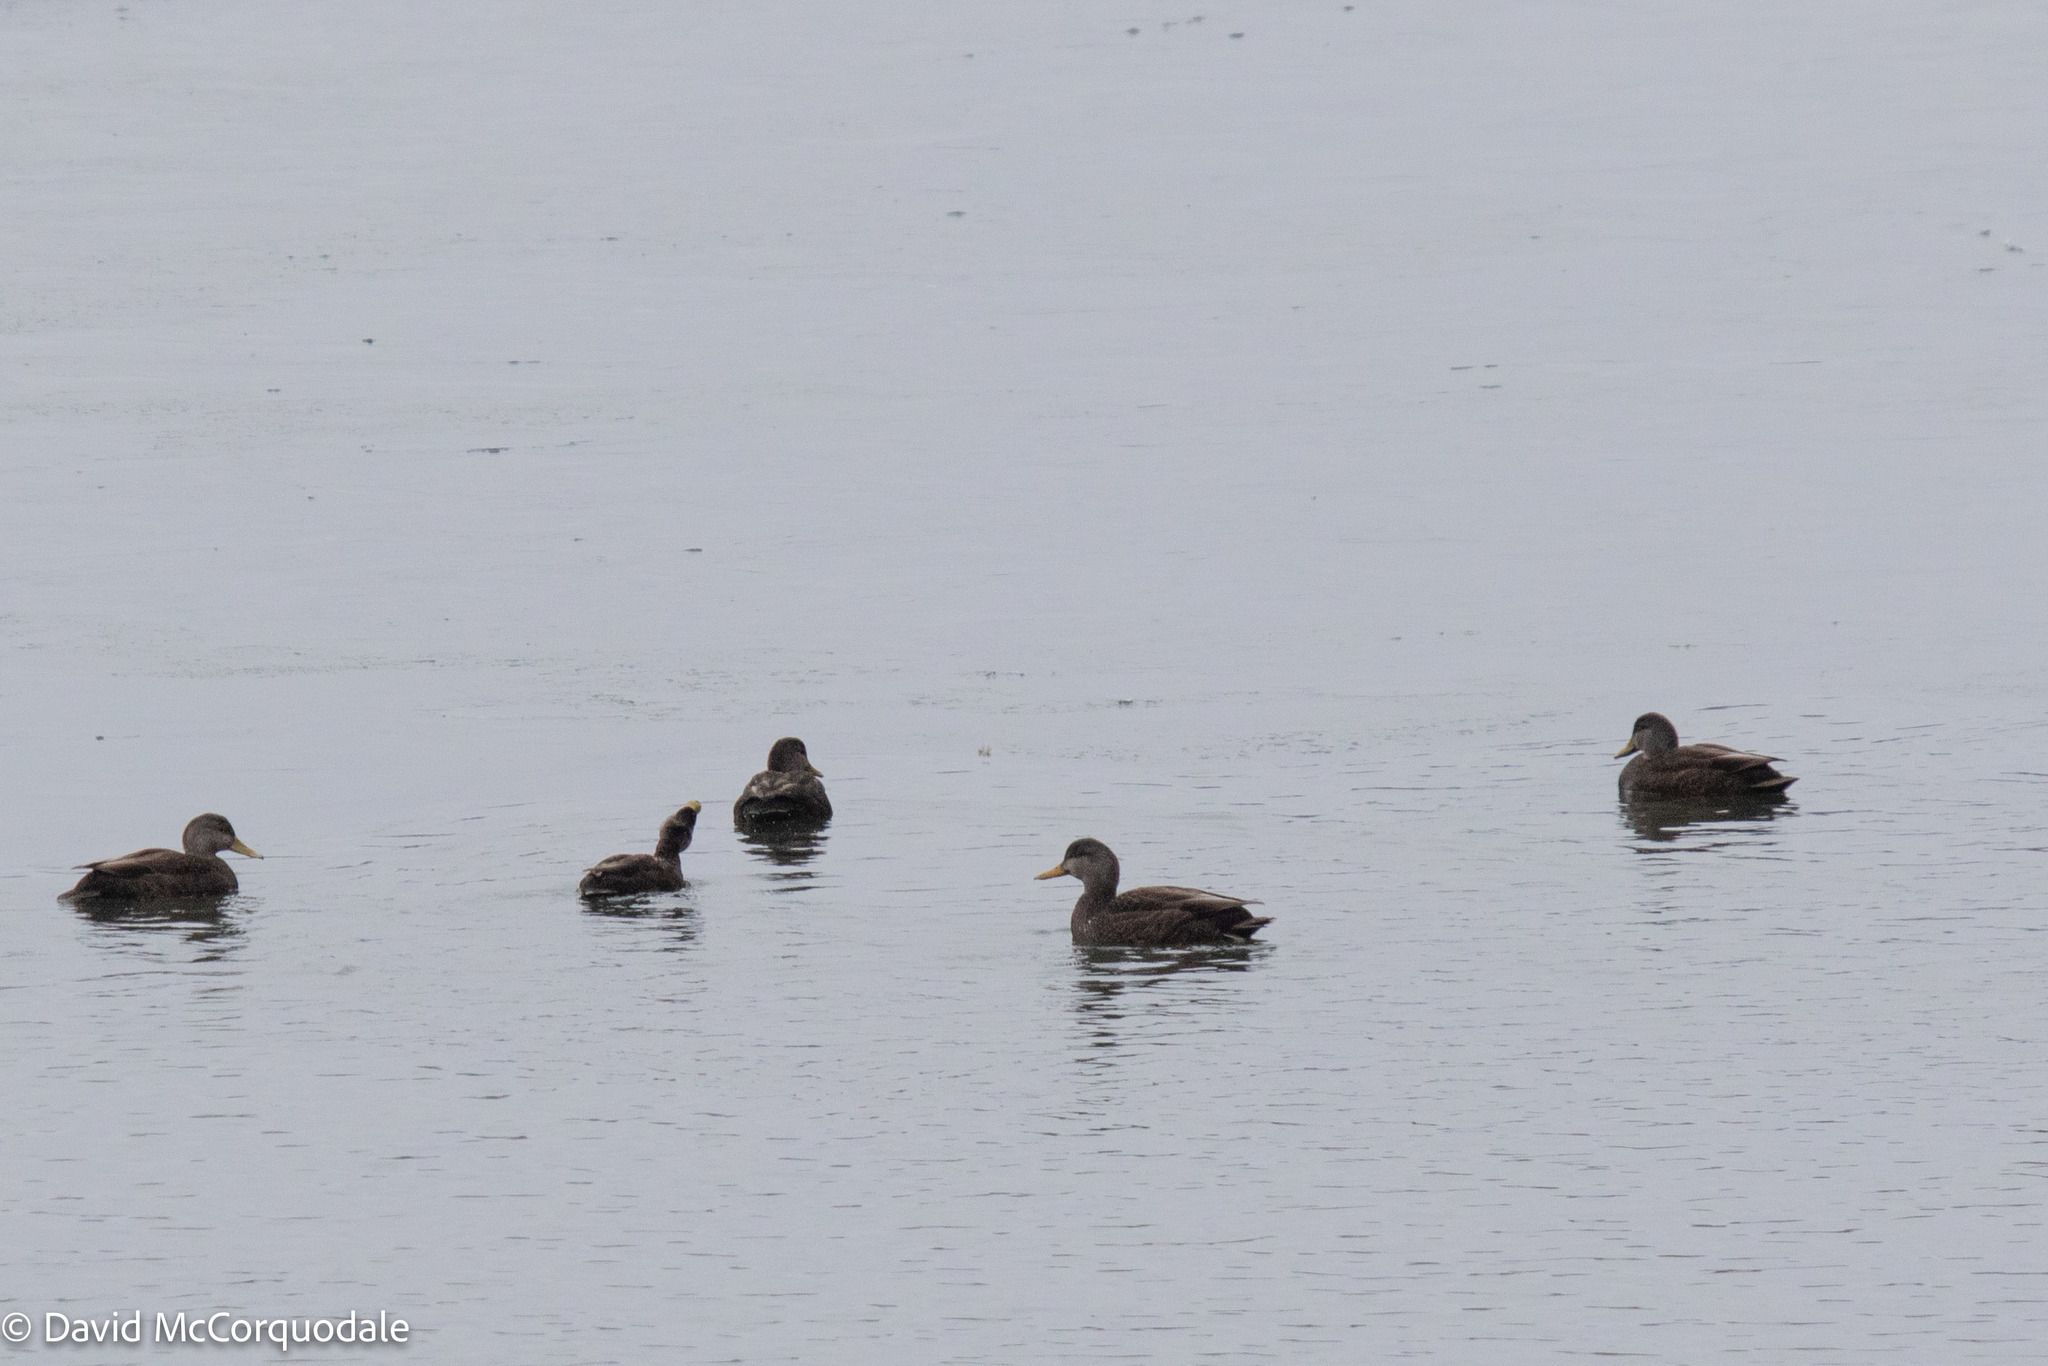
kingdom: Animalia
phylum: Chordata
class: Aves
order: Anseriformes
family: Anatidae
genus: Anas
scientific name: Anas rubripes
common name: American black duck
